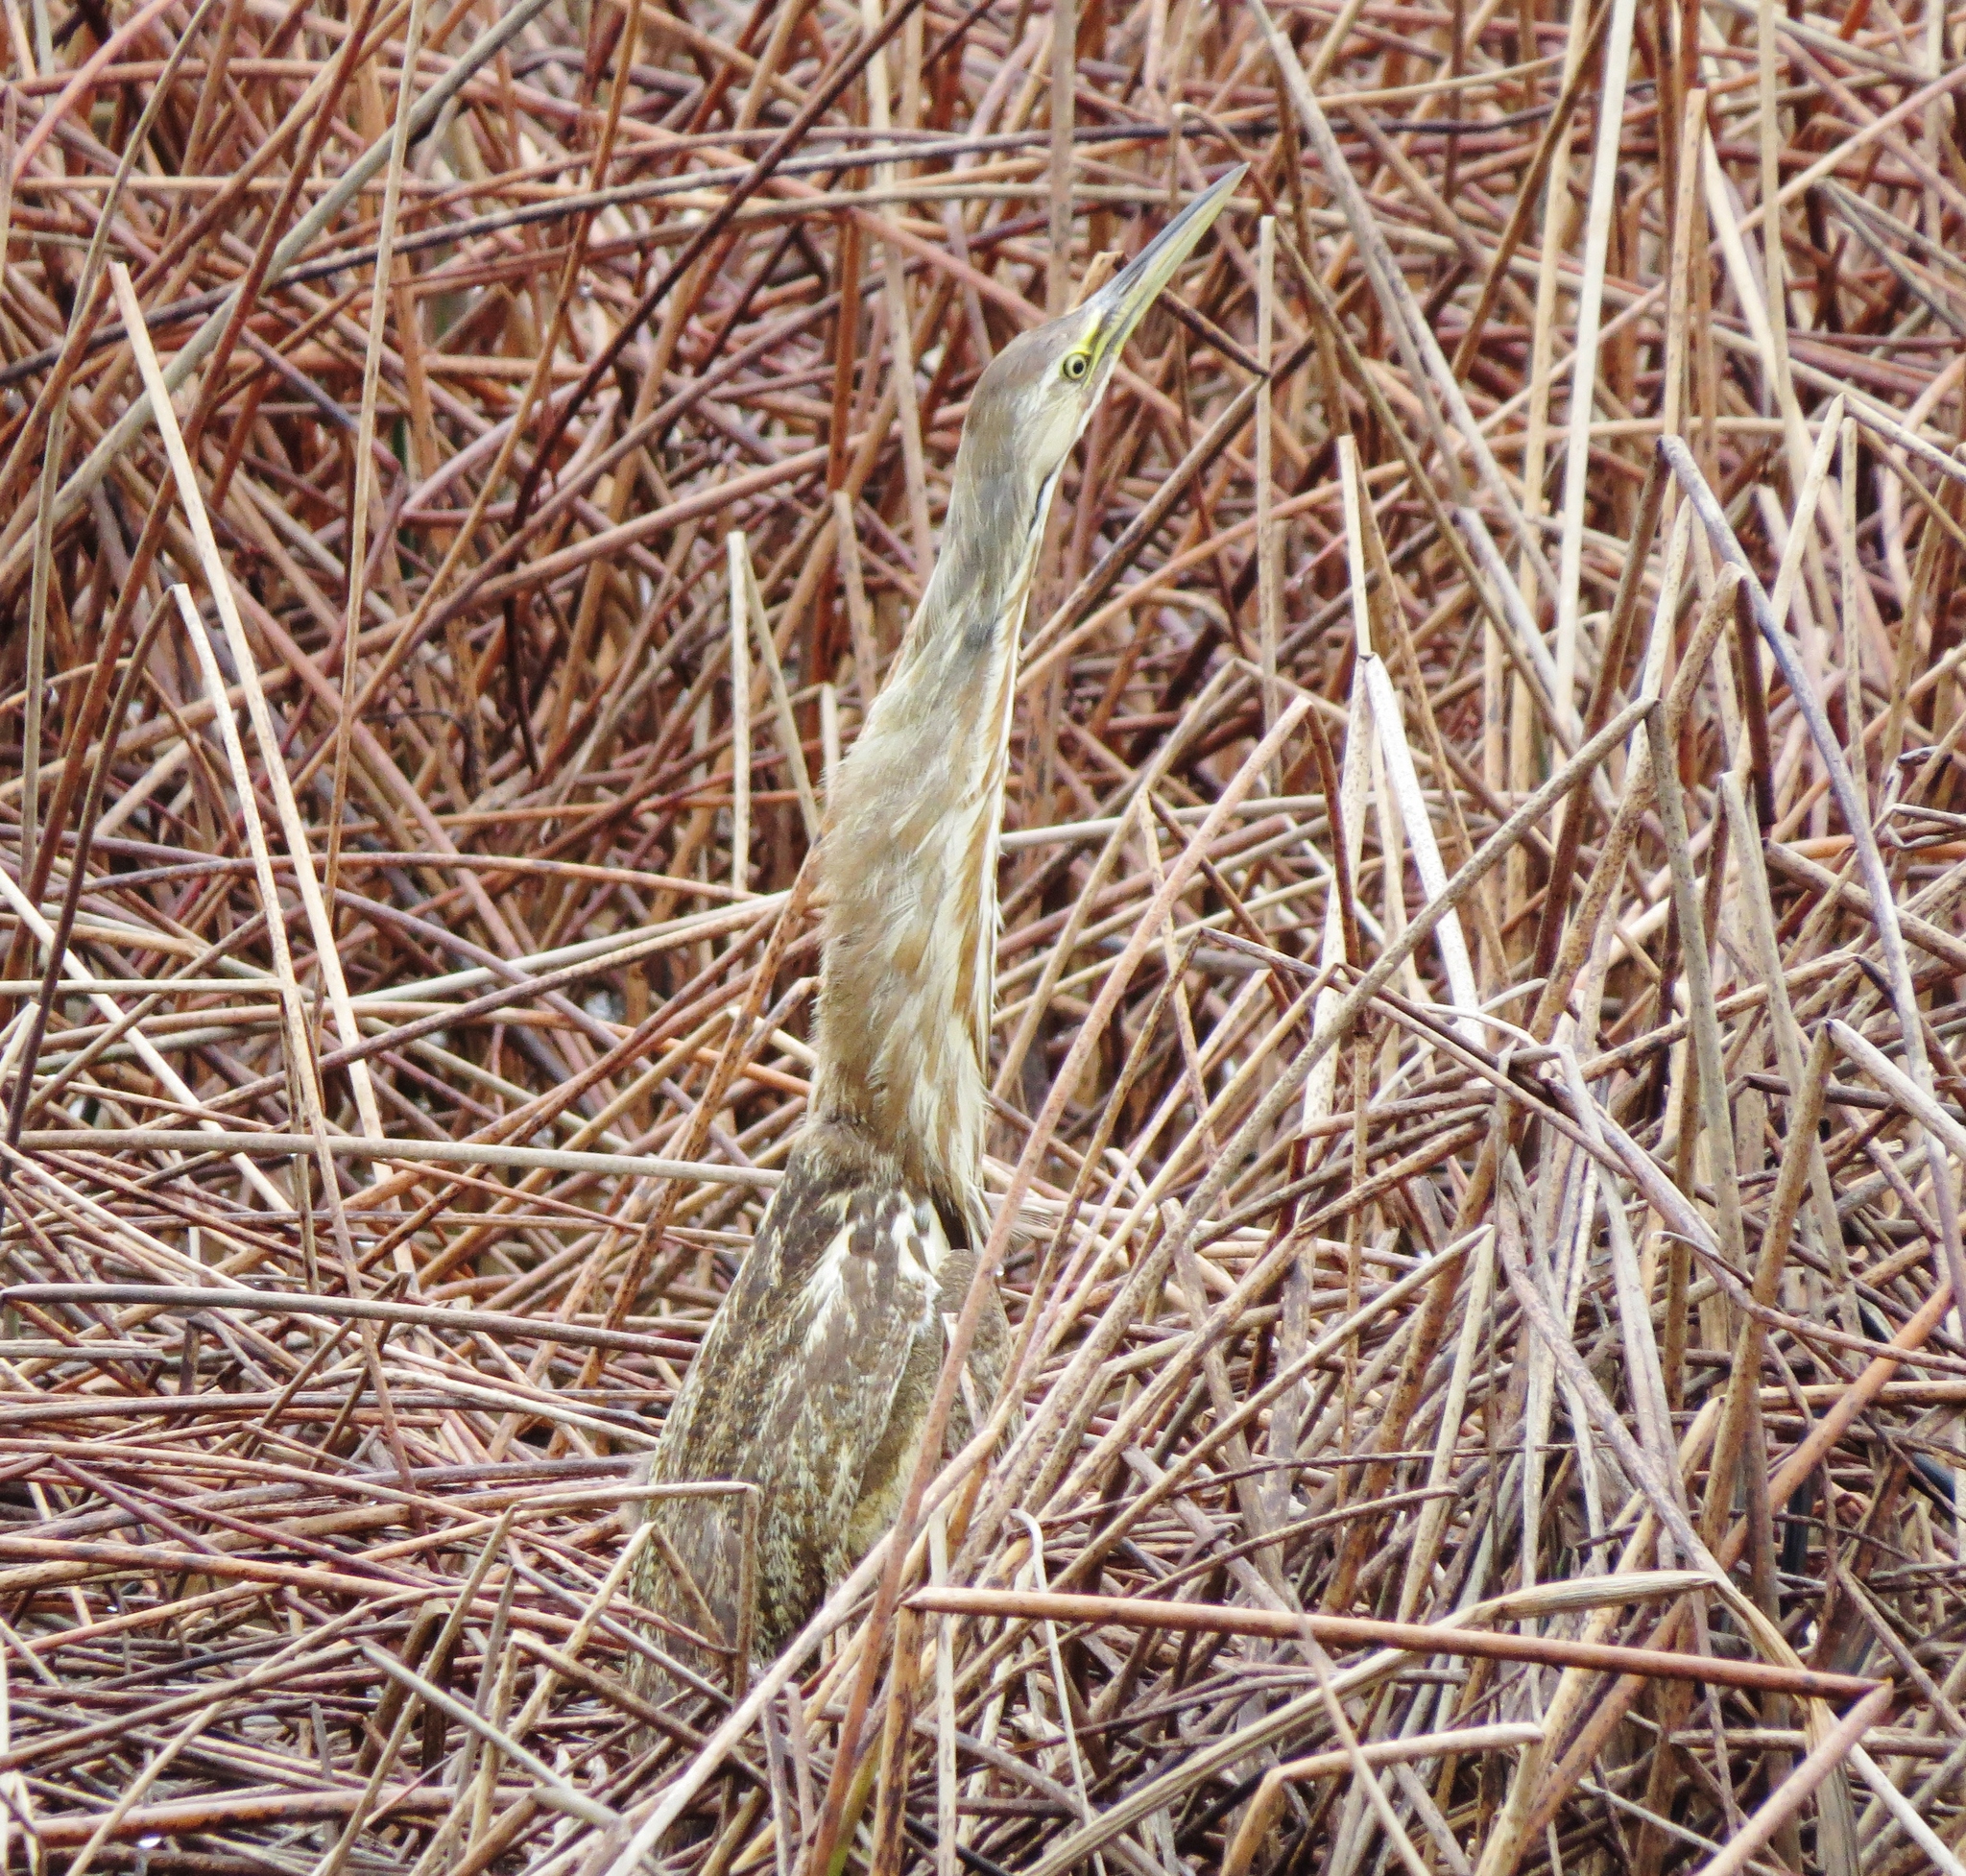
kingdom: Animalia
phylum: Chordata
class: Aves
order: Pelecaniformes
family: Ardeidae
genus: Botaurus
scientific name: Botaurus lentiginosus
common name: American bittern
